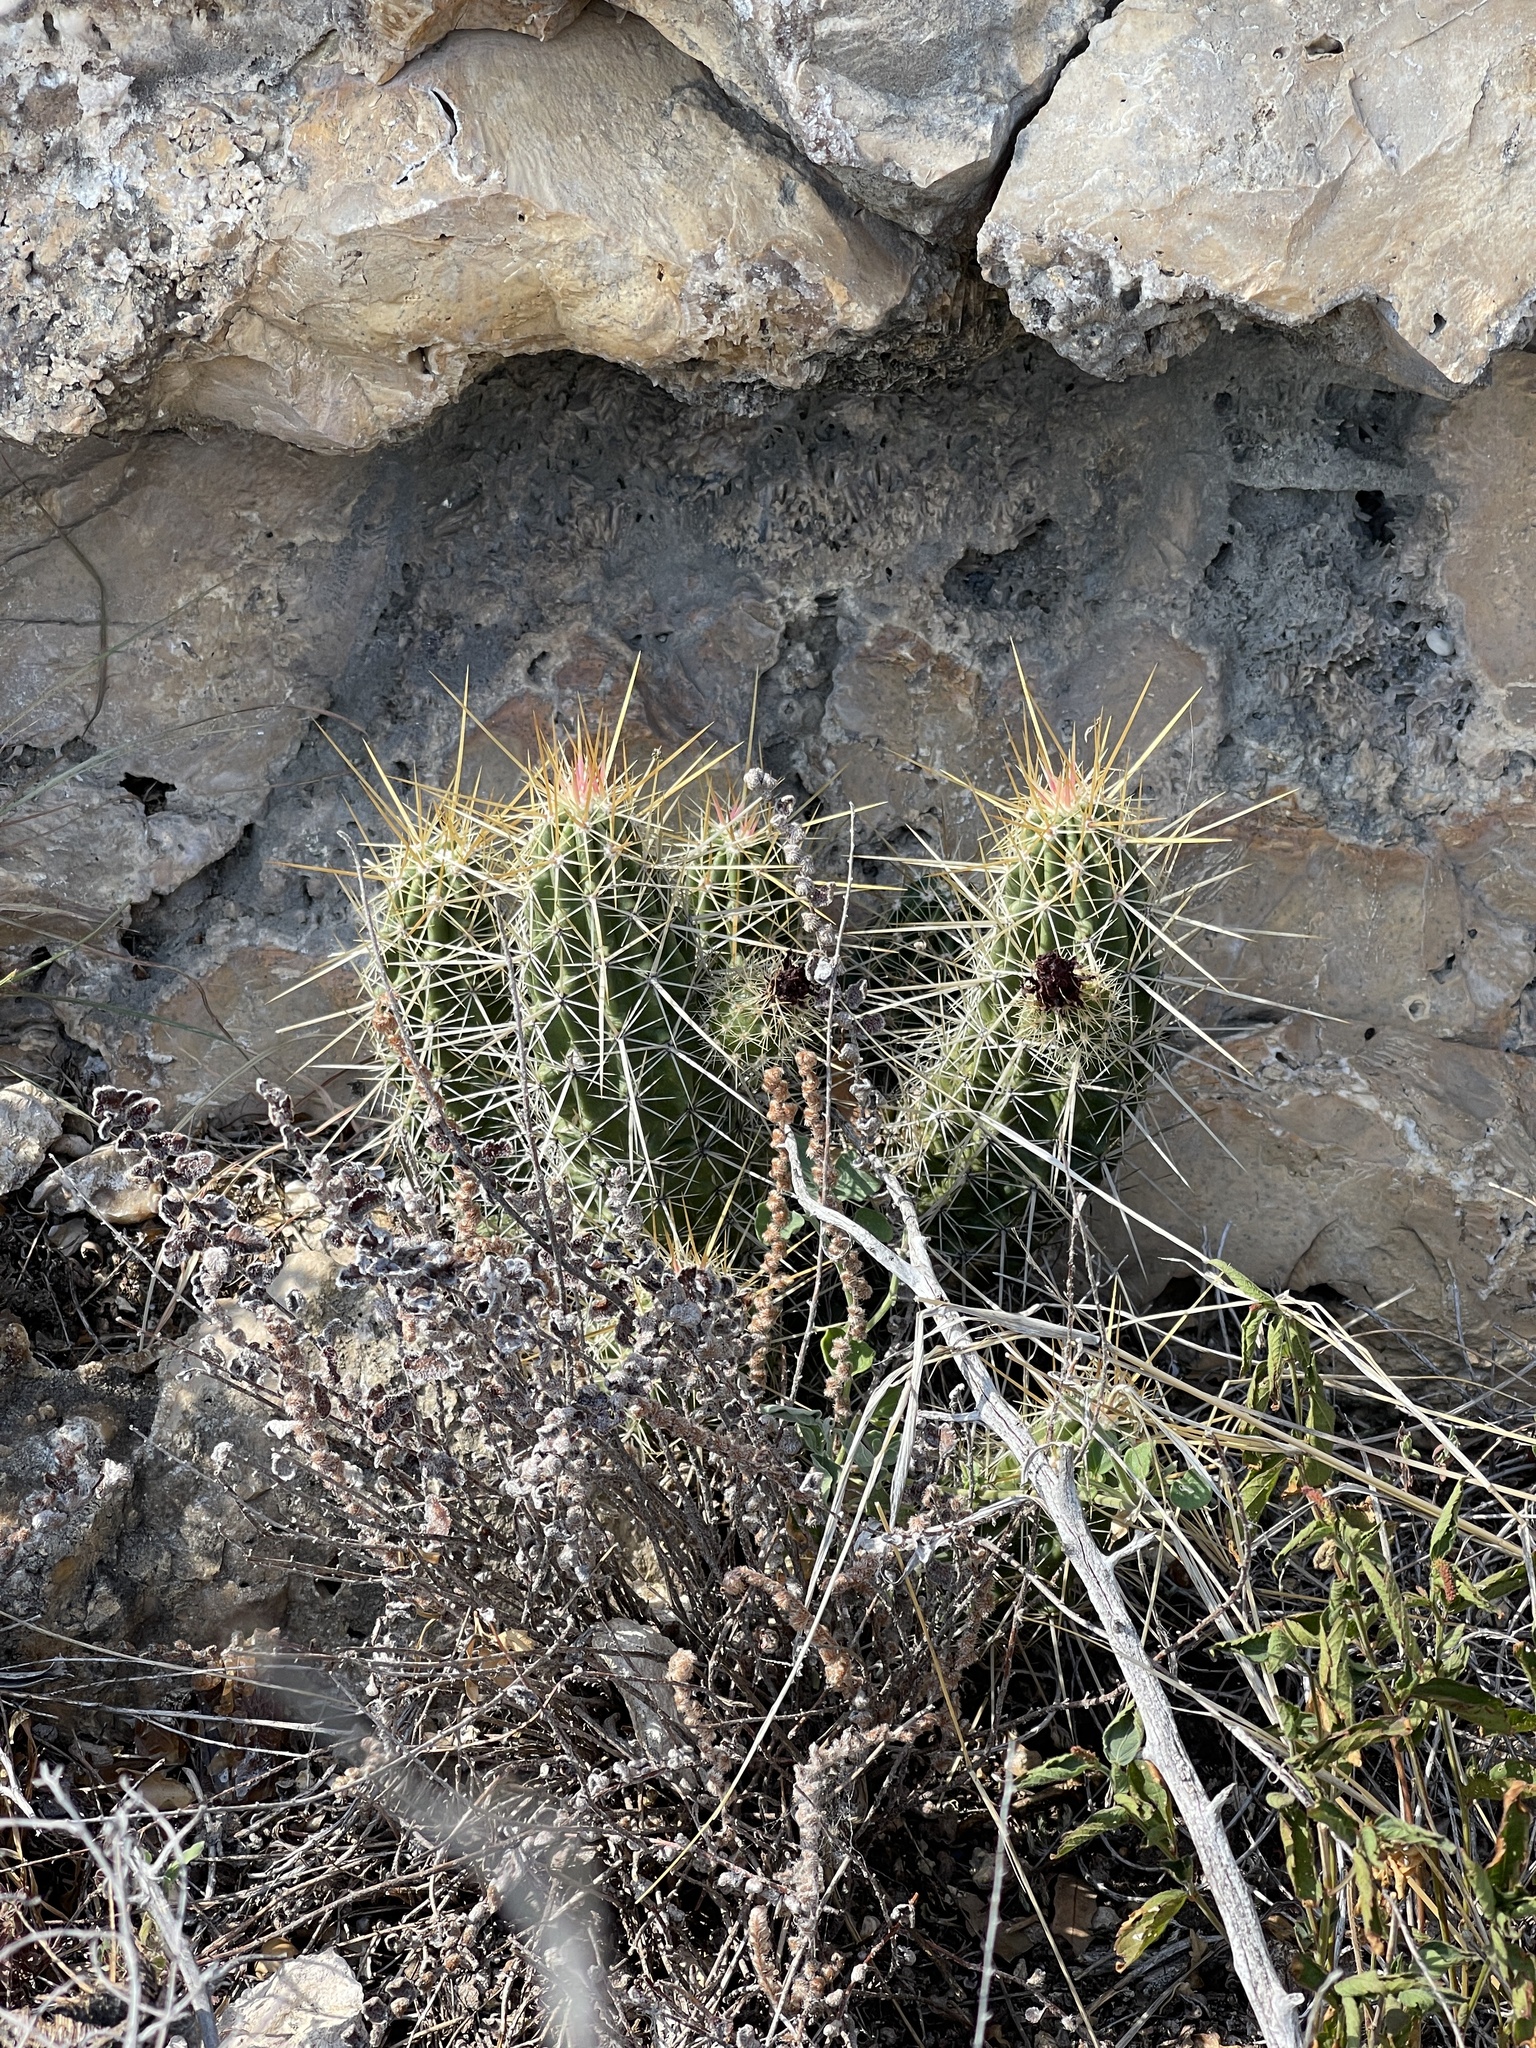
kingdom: Plantae
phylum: Tracheophyta
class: Magnoliopsida
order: Caryophyllales
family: Cactaceae
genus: Echinocereus
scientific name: Echinocereus enneacanthus
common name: Pitaya
